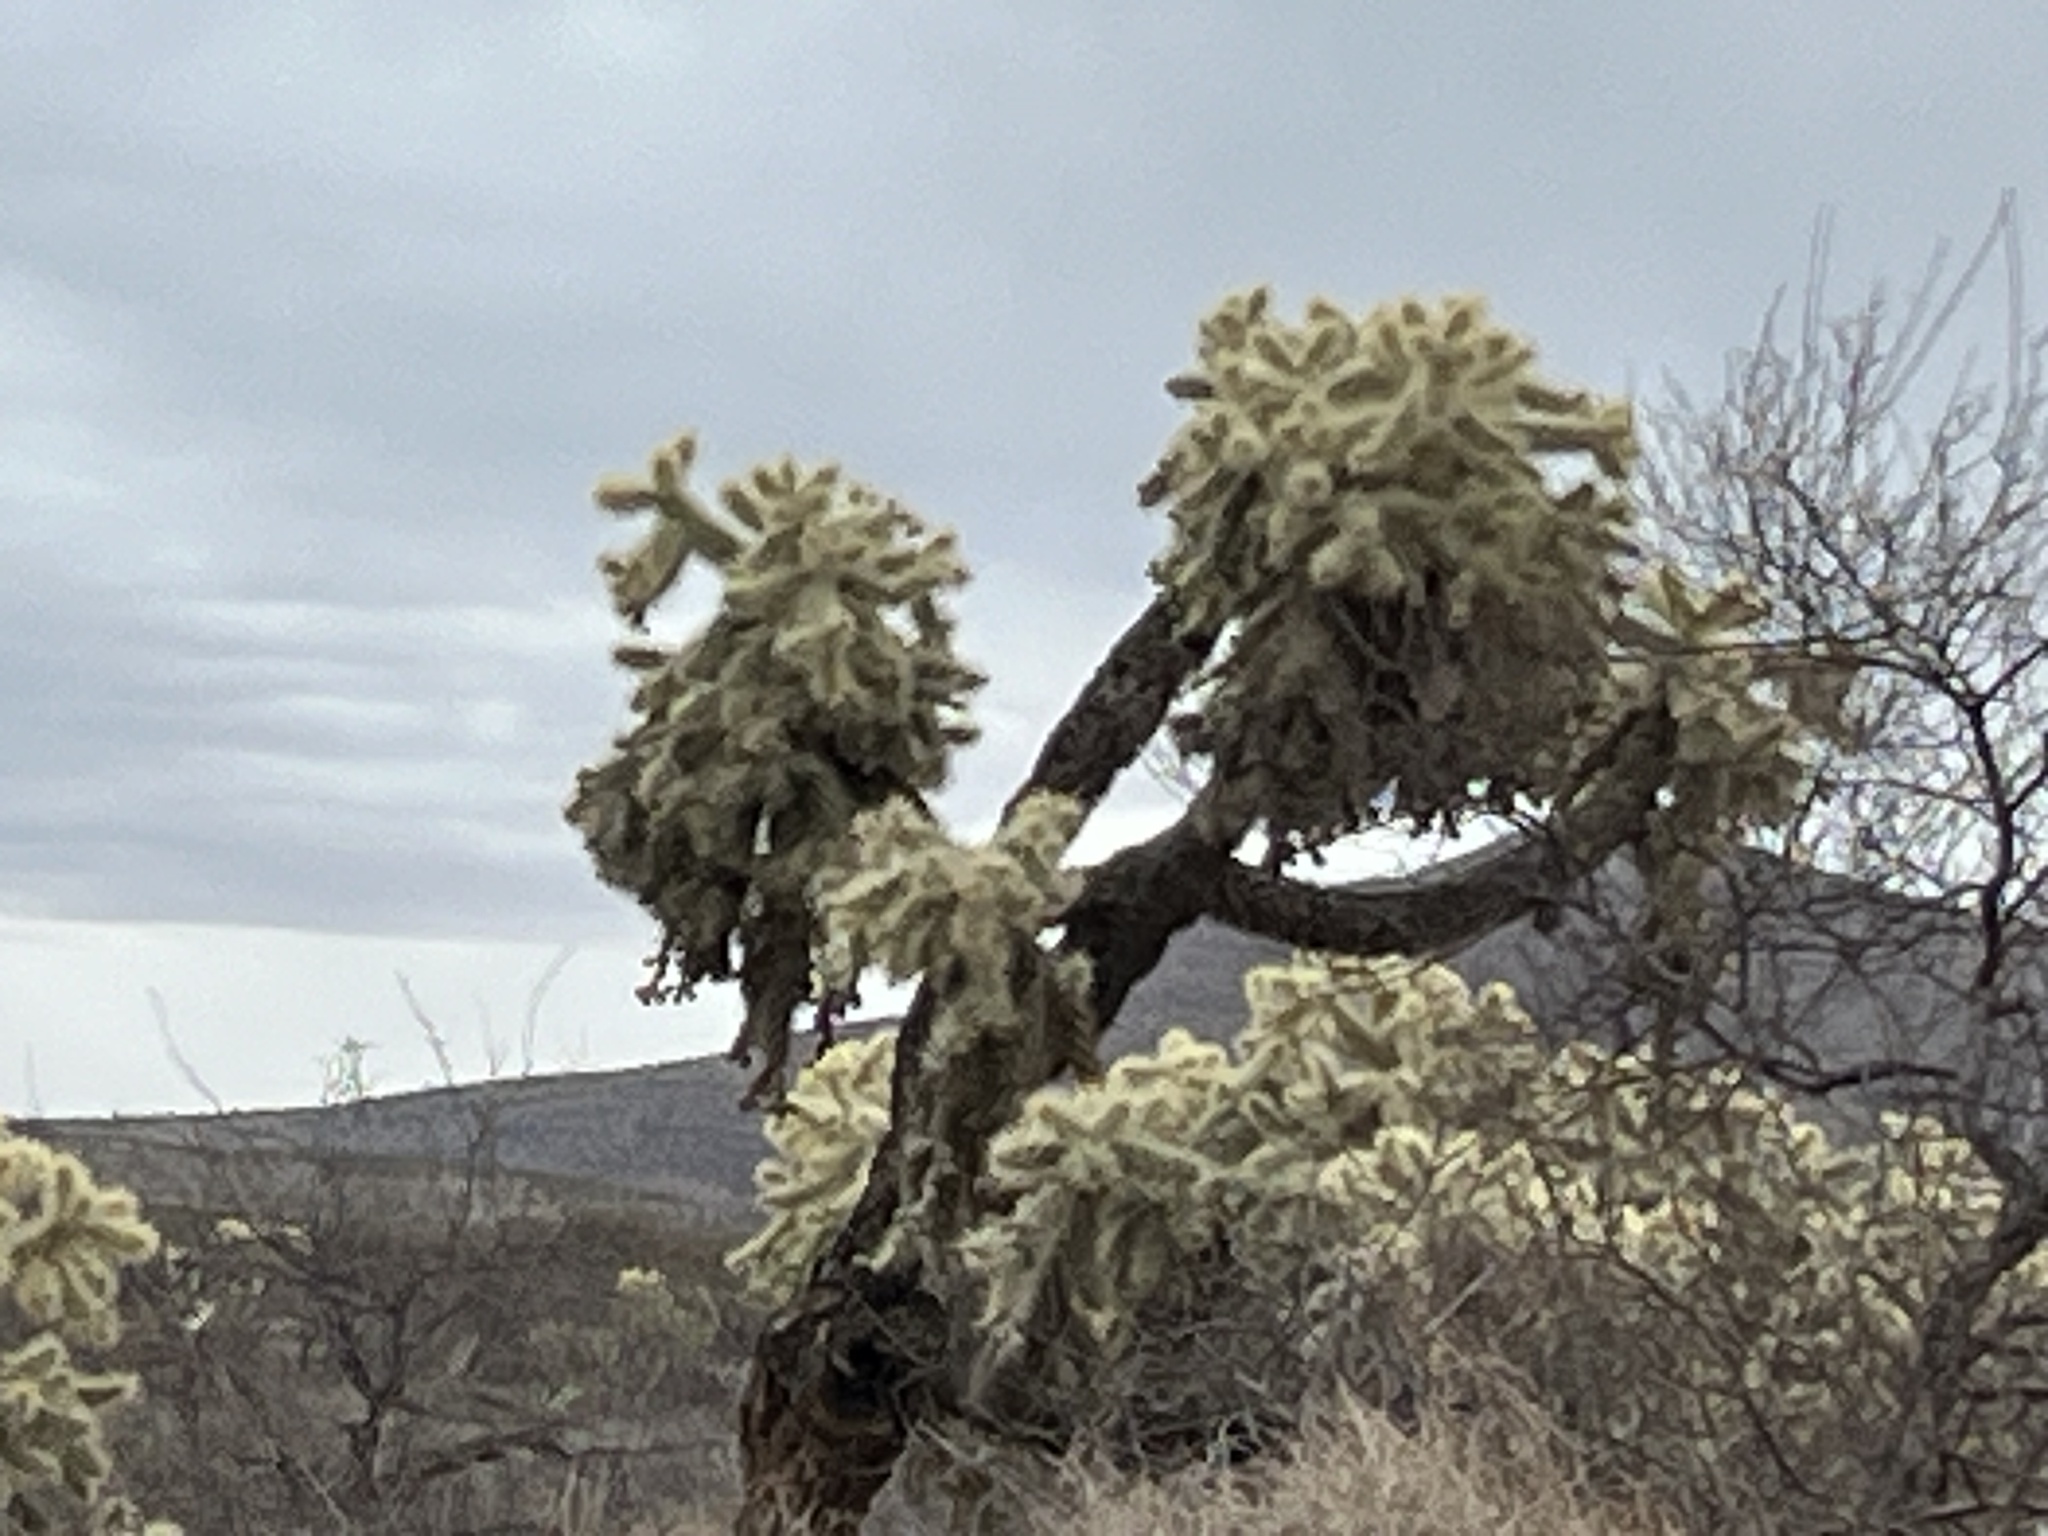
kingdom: Plantae
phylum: Tracheophyta
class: Magnoliopsida
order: Caryophyllales
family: Cactaceae
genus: Cylindropuntia
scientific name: Cylindropuntia fulgida
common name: Jumping cholla
